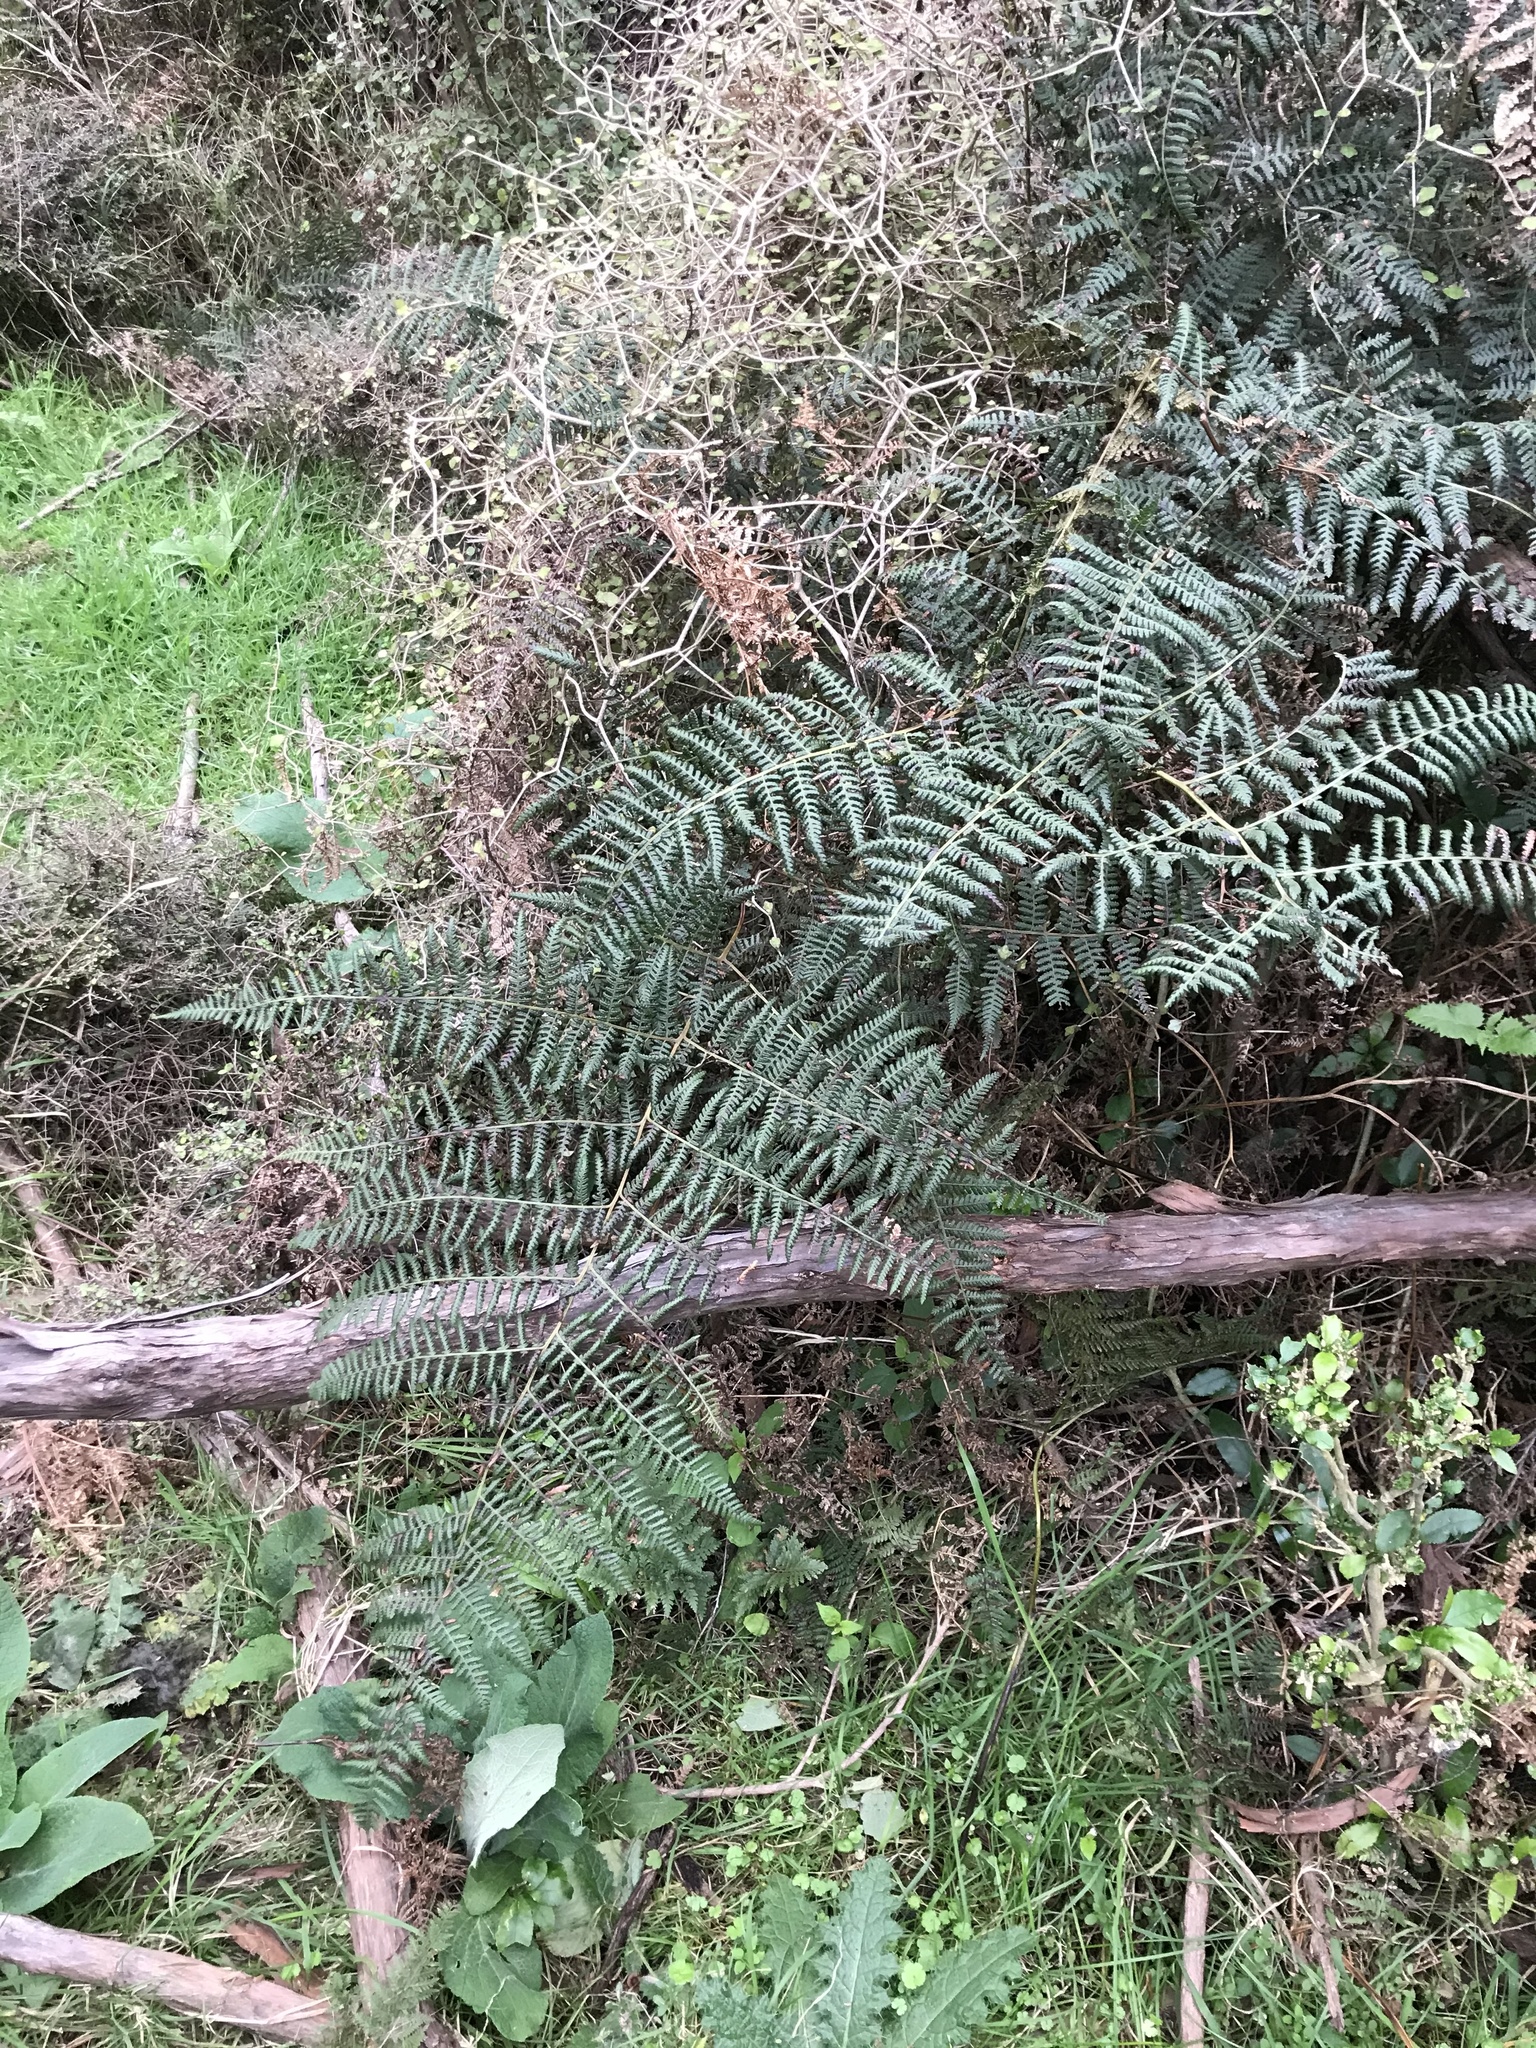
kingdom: Plantae
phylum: Tracheophyta
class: Polypodiopsida
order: Polypodiales
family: Dennstaedtiaceae
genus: Hypolepis
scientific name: Hypolepis ambigua
